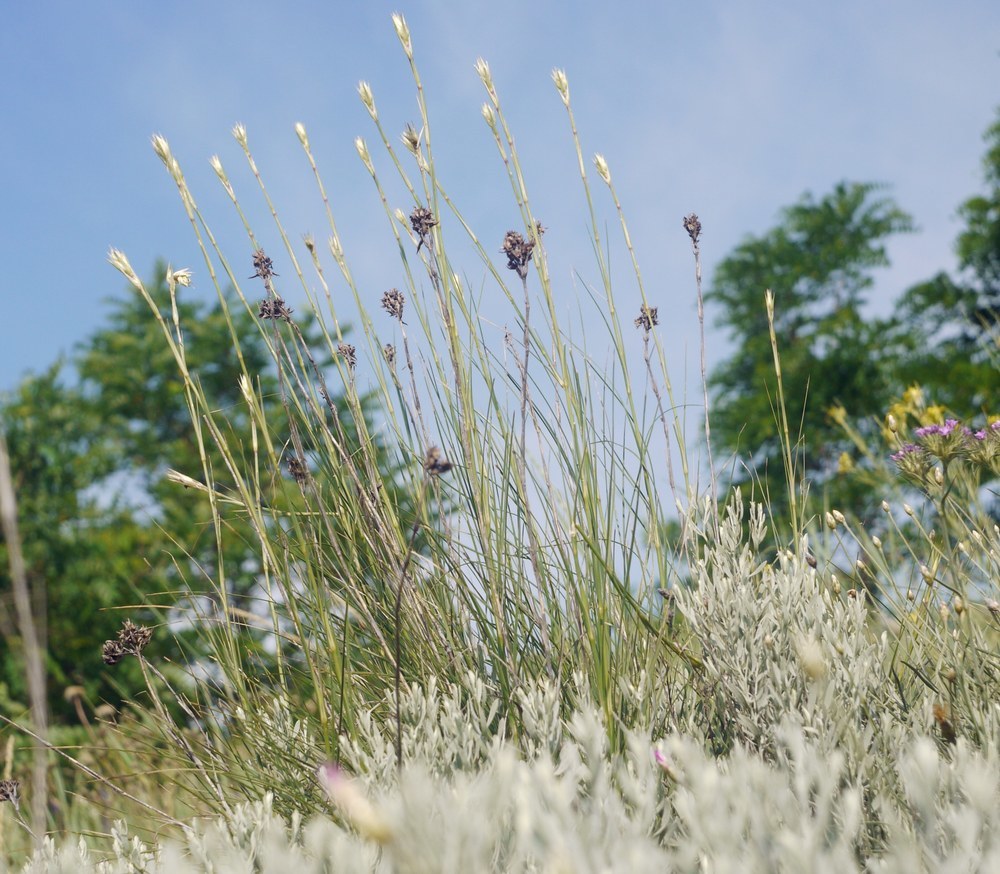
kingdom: Plantae
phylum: Tracheophyta
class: Magnoliopsida
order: Caryophyllales
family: Caryophyllaceae
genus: Eremogone
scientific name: Eremogone cephalotes
